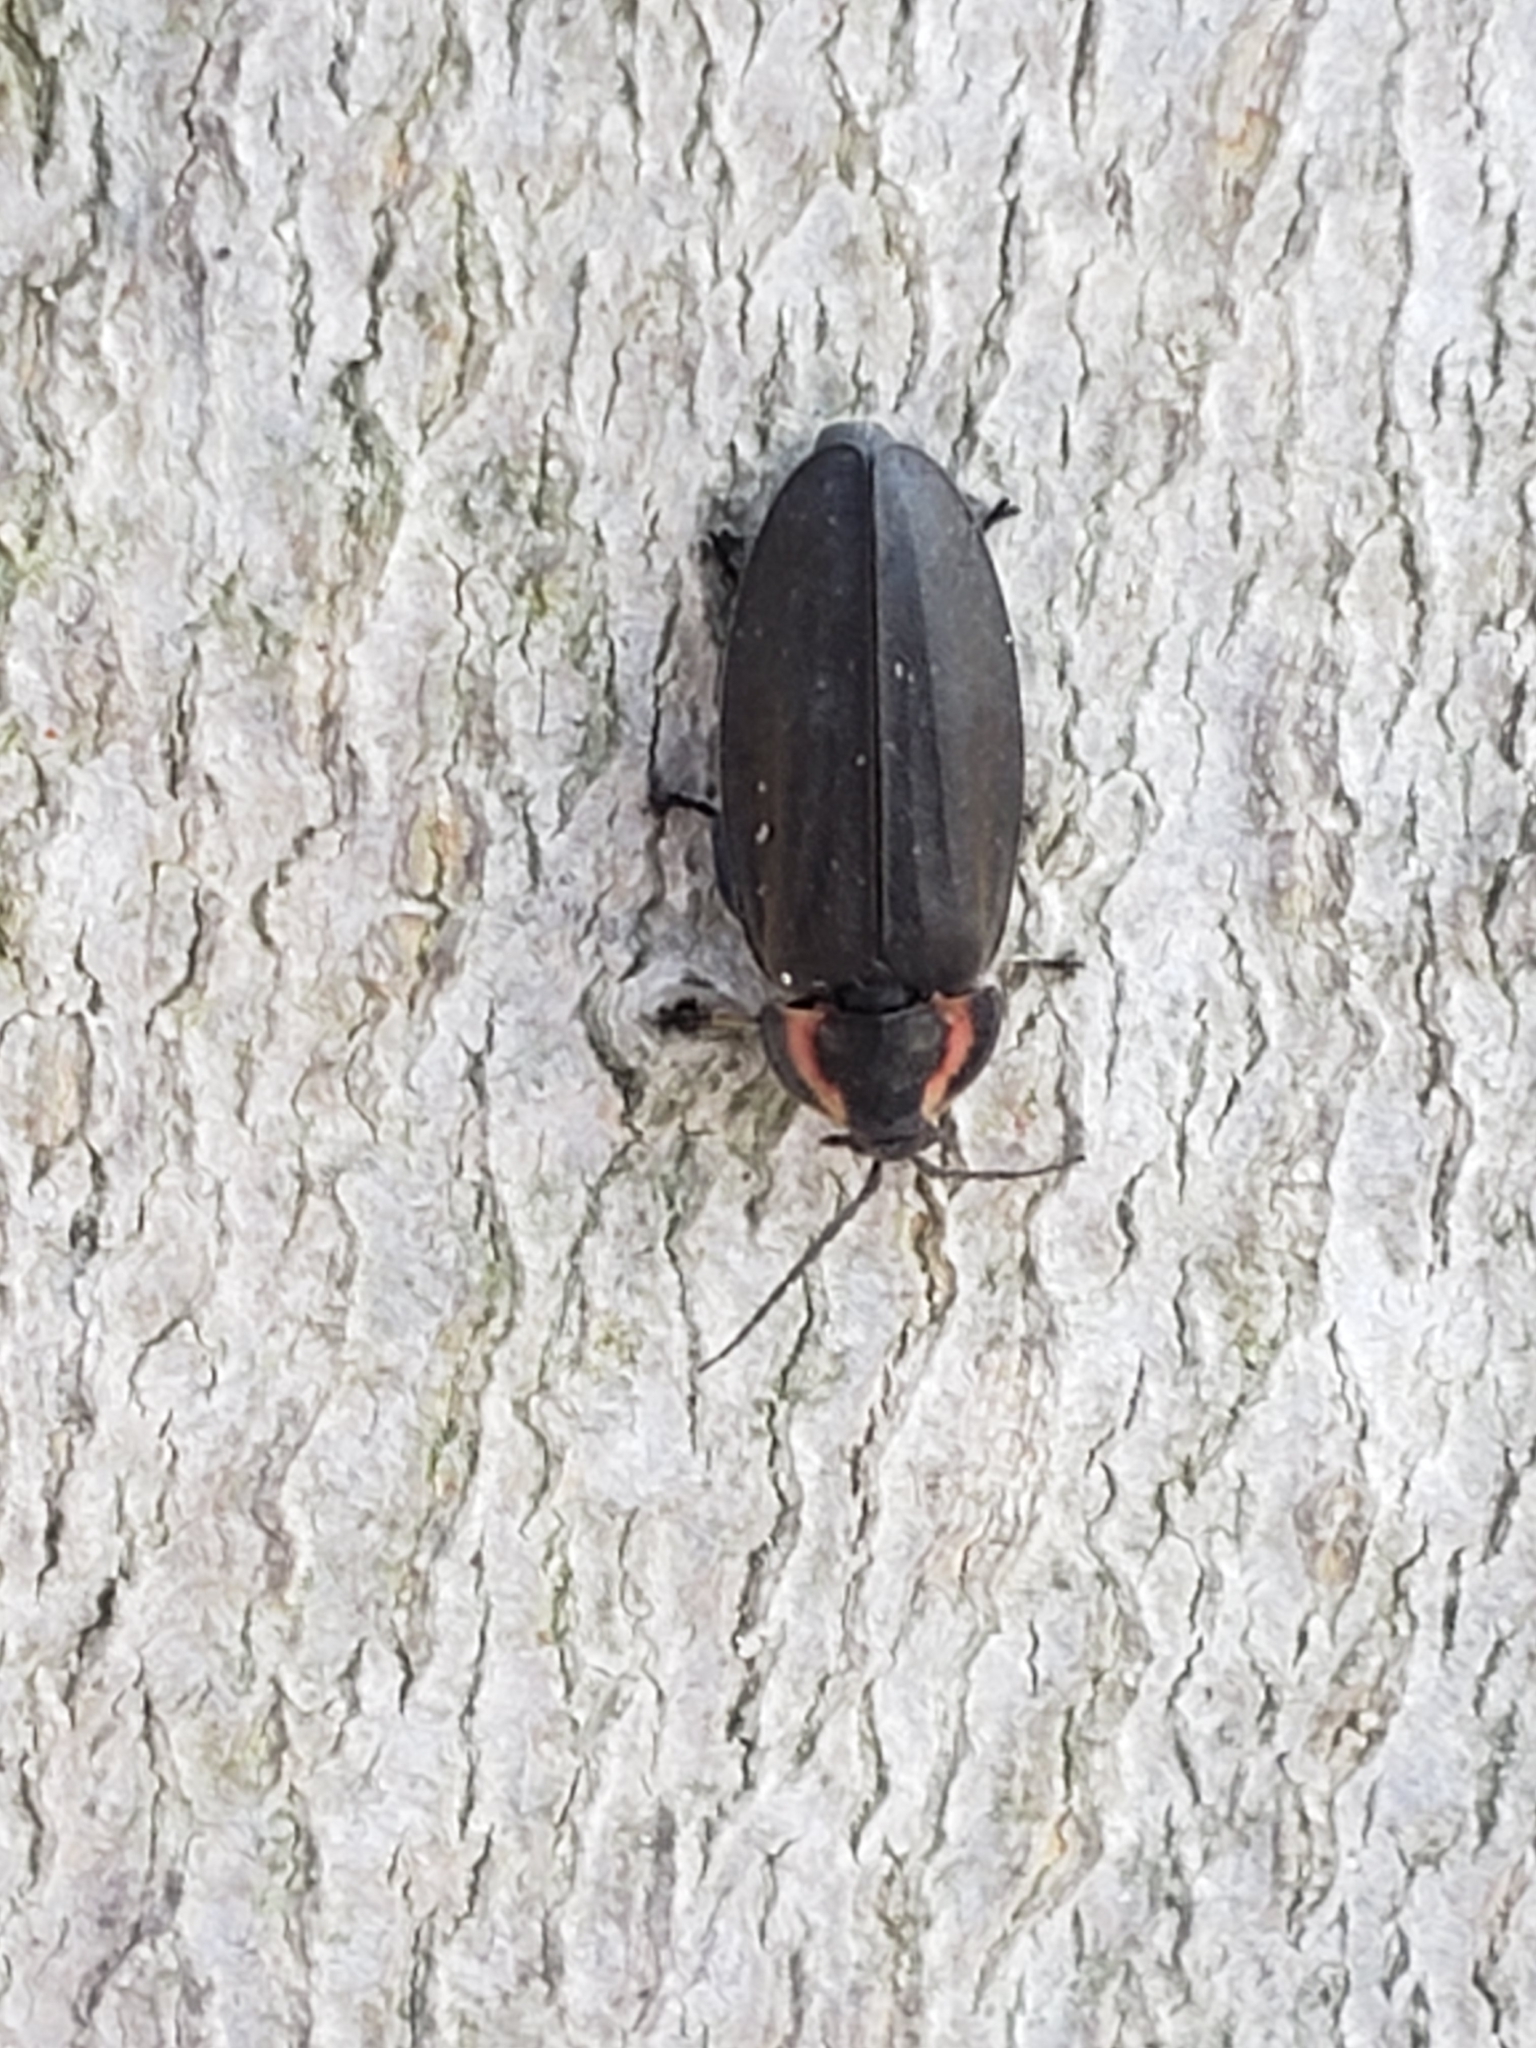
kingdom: Animalia
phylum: Arthropoda
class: Insecta
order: Coleoptera
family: Lampyridae
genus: Photinus
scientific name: Photinus corrusca
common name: Winter firefly
